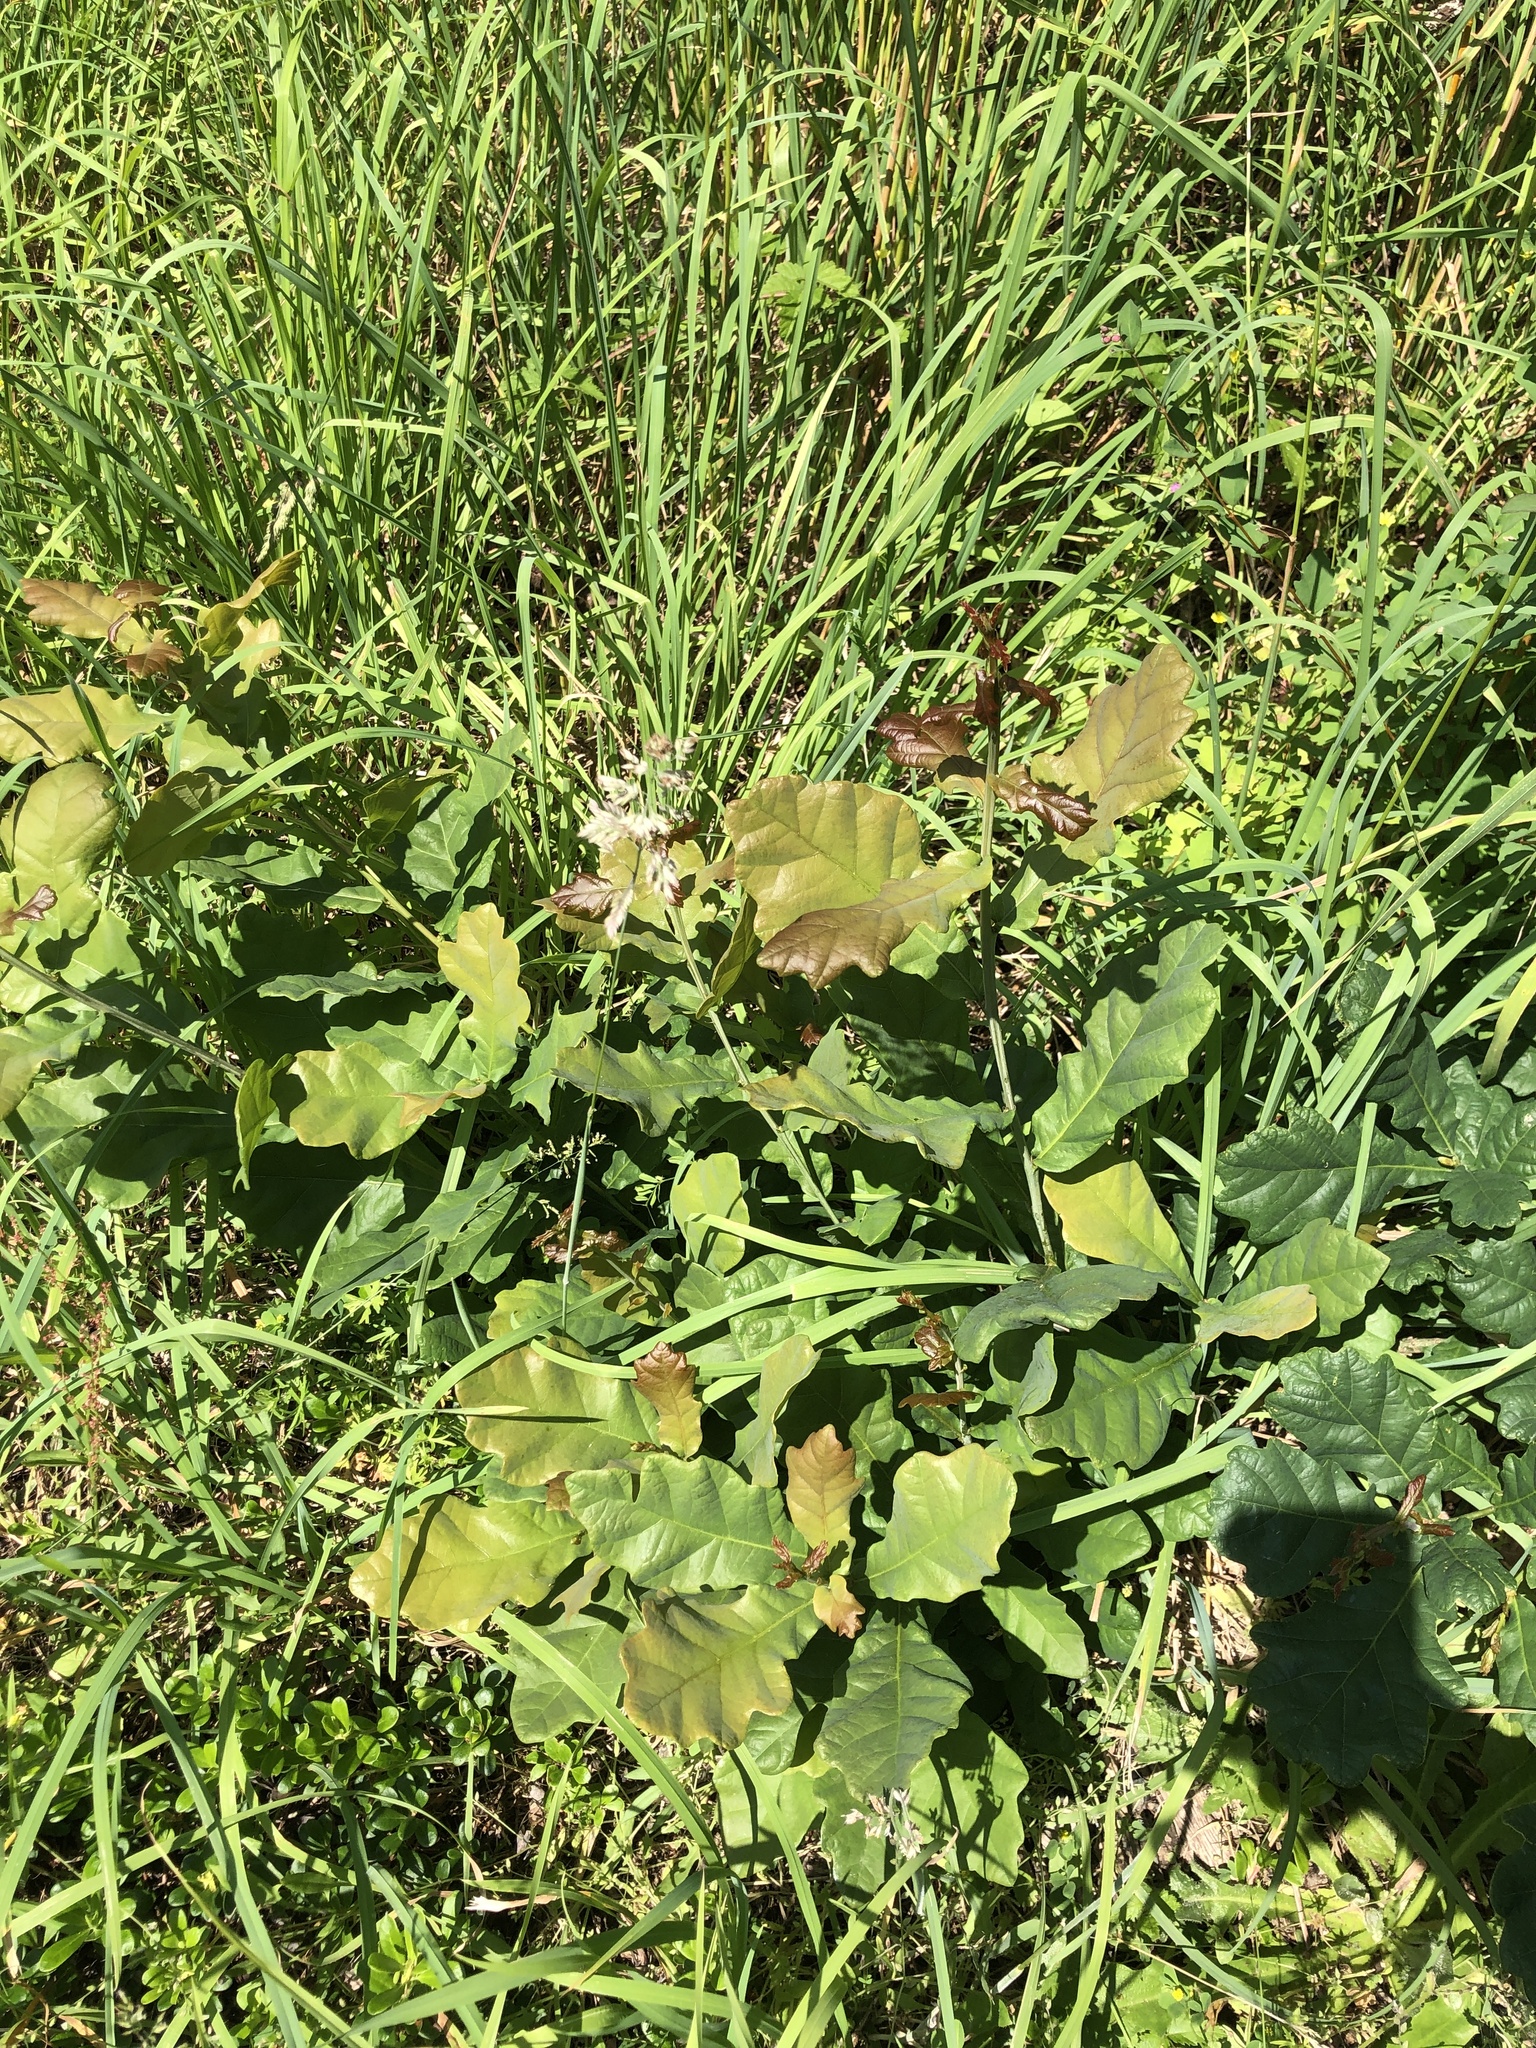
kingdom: Plantae
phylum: Tracheophyta
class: Magnoliopsida
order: Fagales
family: Fagaceae
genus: Quercus
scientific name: Quercus robur
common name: Pedunculate oak
